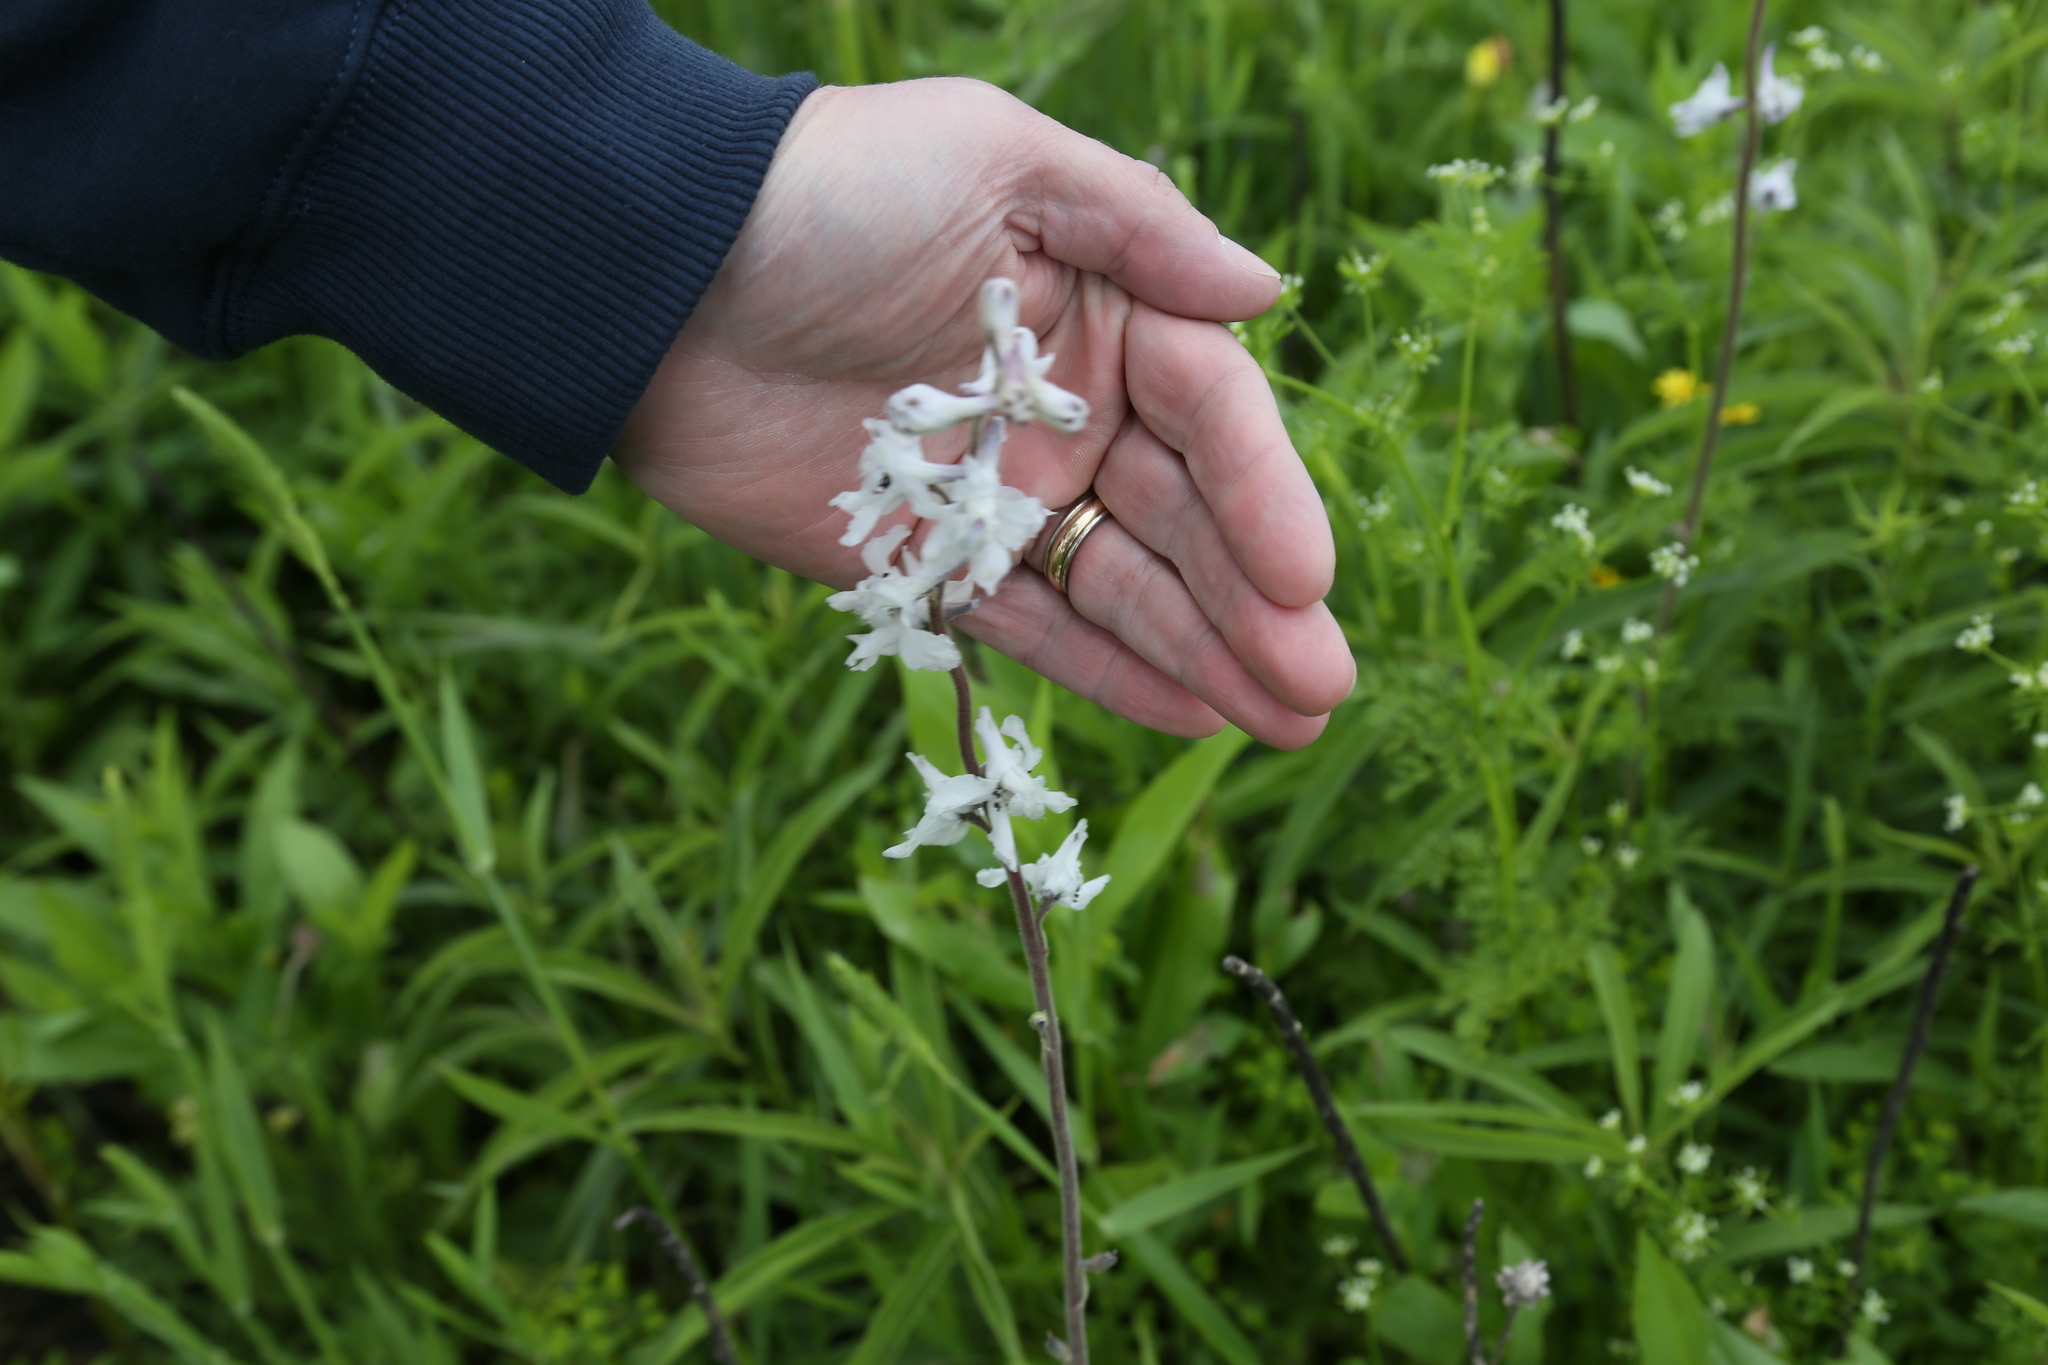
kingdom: Plantae
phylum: Tracheophyta
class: Magnoliopsida
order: Ranunculales
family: Ranunculaceae
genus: Delphinium
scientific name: Delphinium carolinianum
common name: Carolina larkspur
